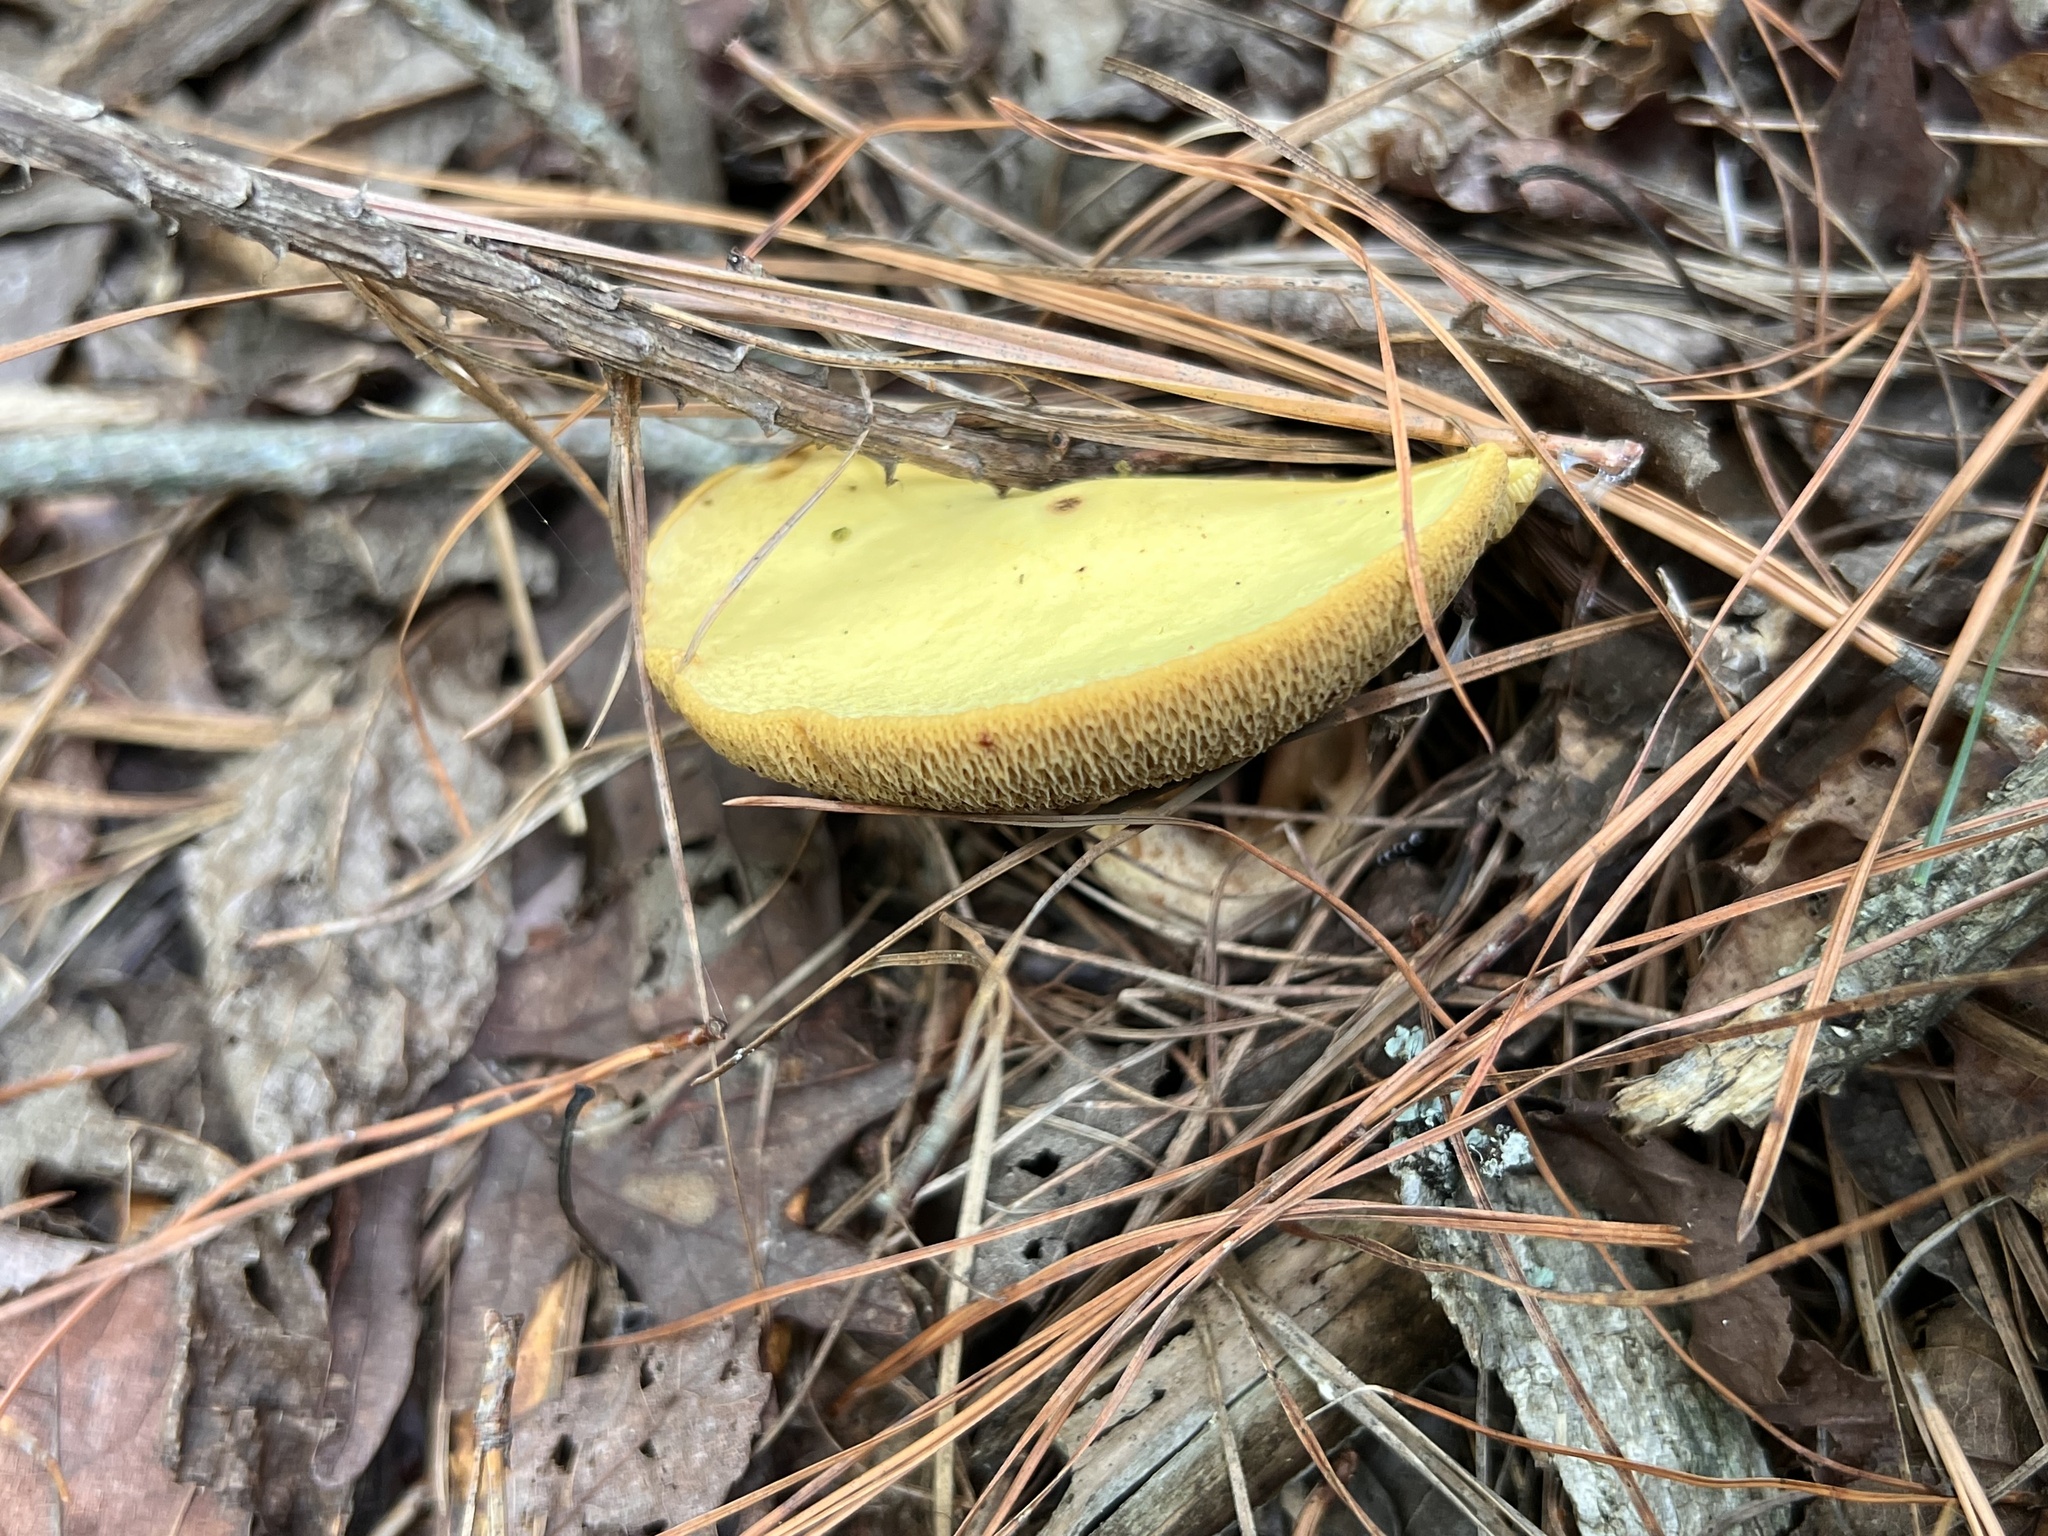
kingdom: Fungi
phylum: Basidiomycota
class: Agaricomycetes
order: Boletales
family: Suillaceae
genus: Suillus
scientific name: Suillus hirtellus
